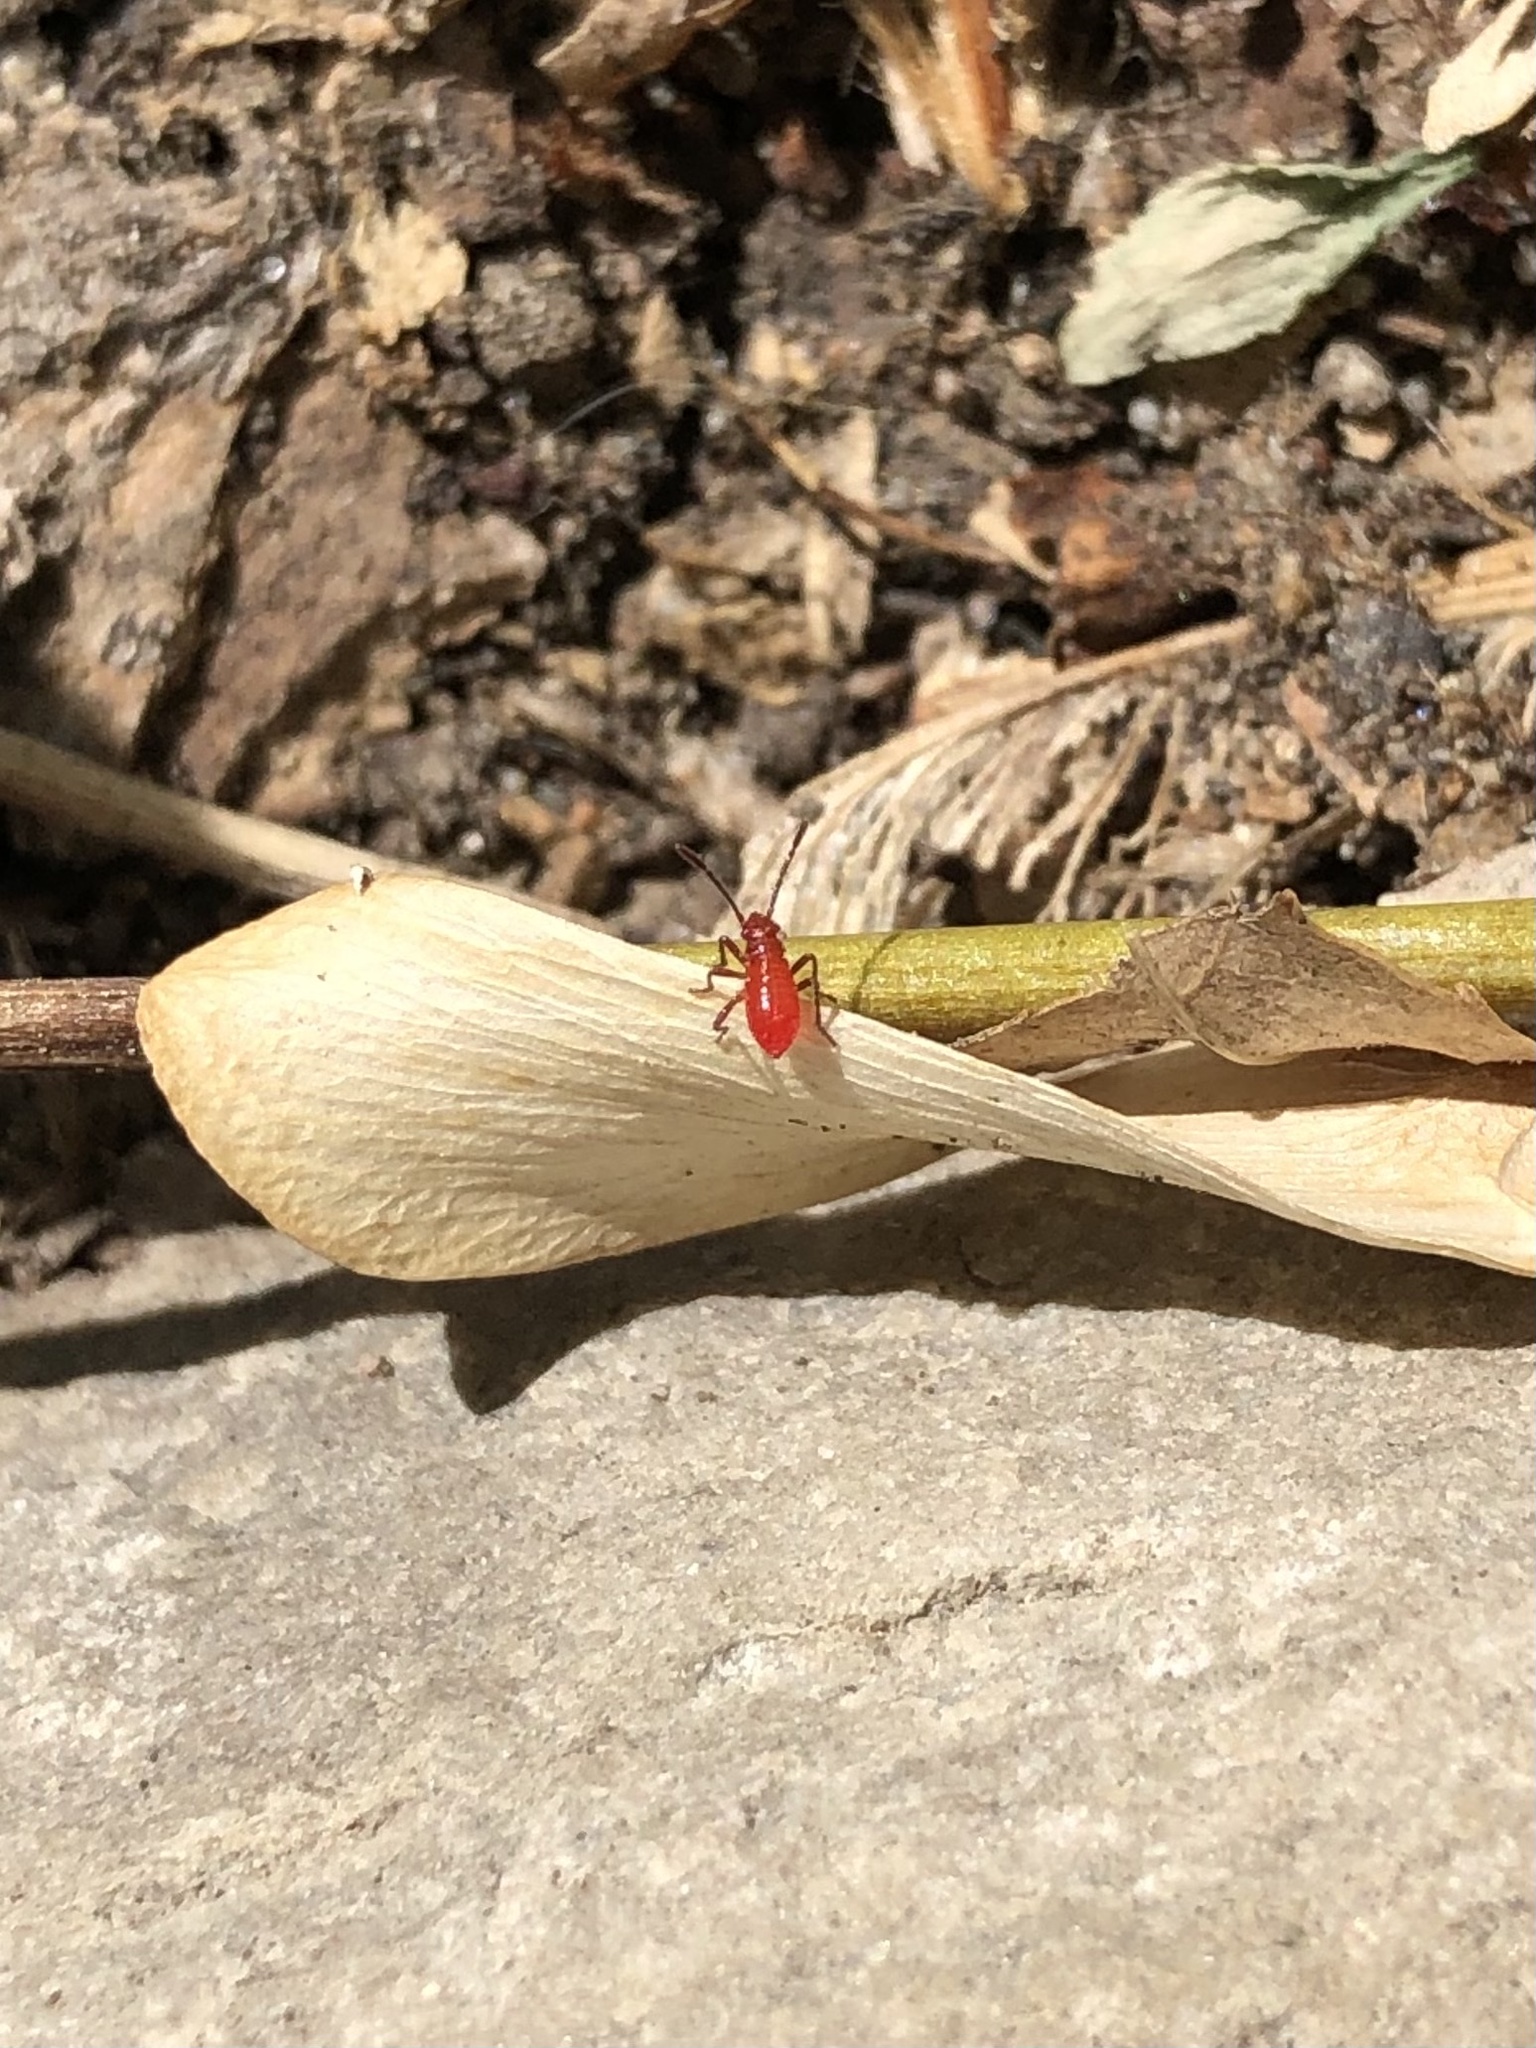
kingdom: Animalia
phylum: Arthropoda
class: Insecta
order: Hemiptera
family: Rhopalidae
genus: Boisea
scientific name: Boisea trivittata
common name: Boxelder bug
